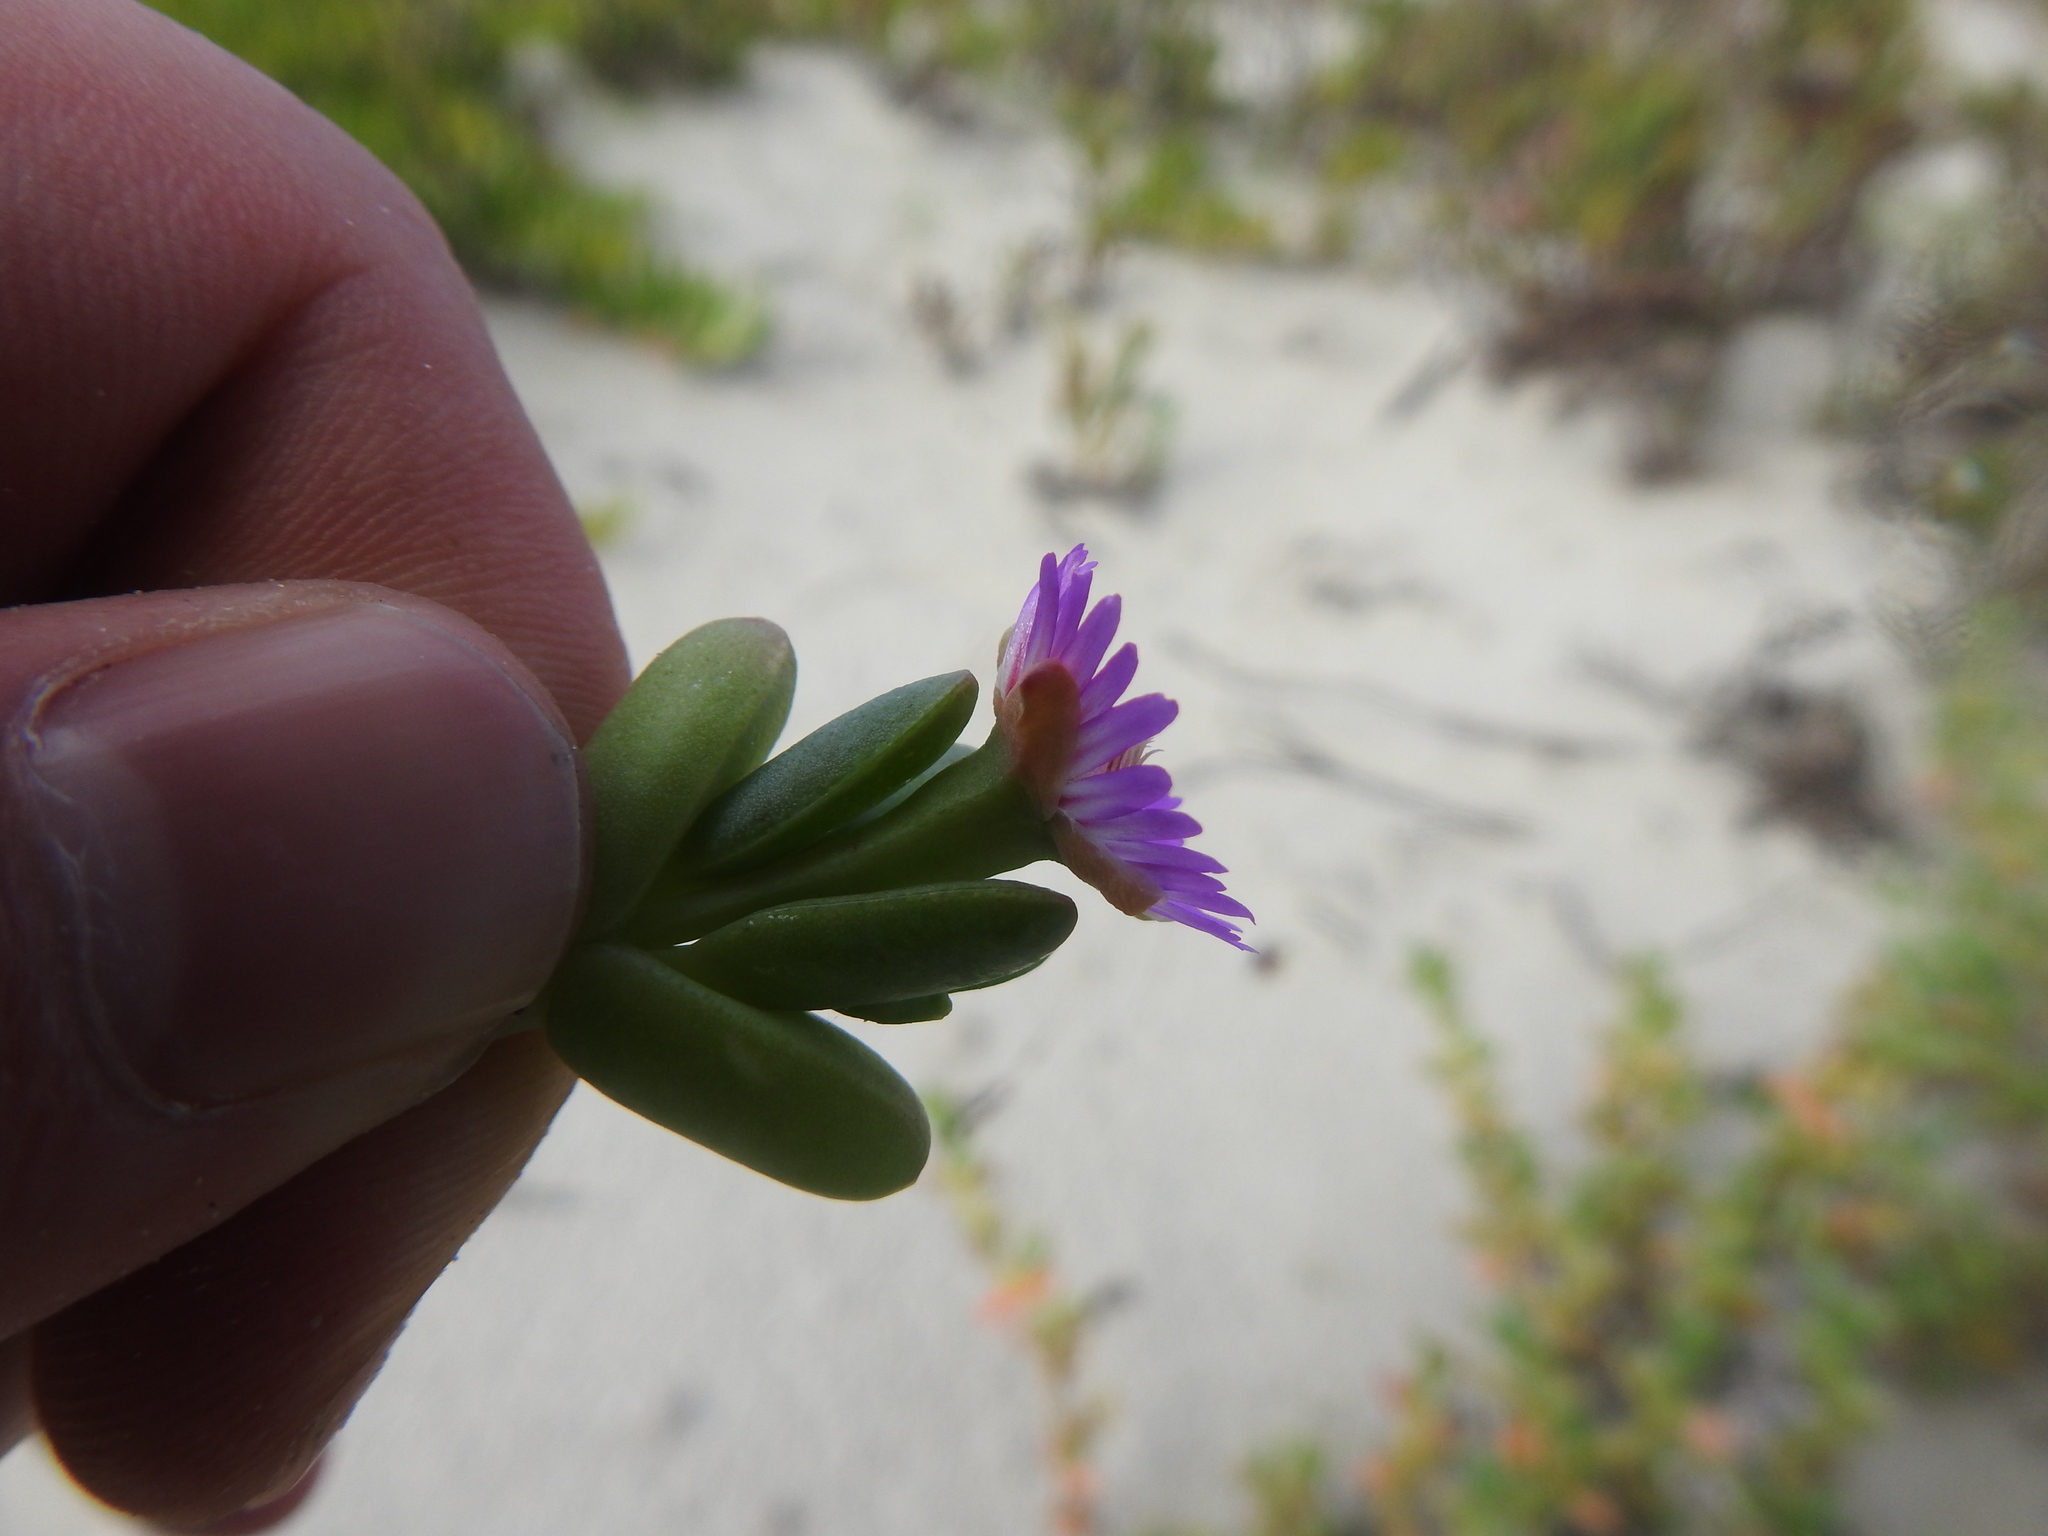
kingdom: Plantae
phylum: Tracheophyta
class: Magnoliopsida
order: Caryophyllales
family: Aizoaceae
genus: Amphibolia
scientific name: Amphibolia laevis
